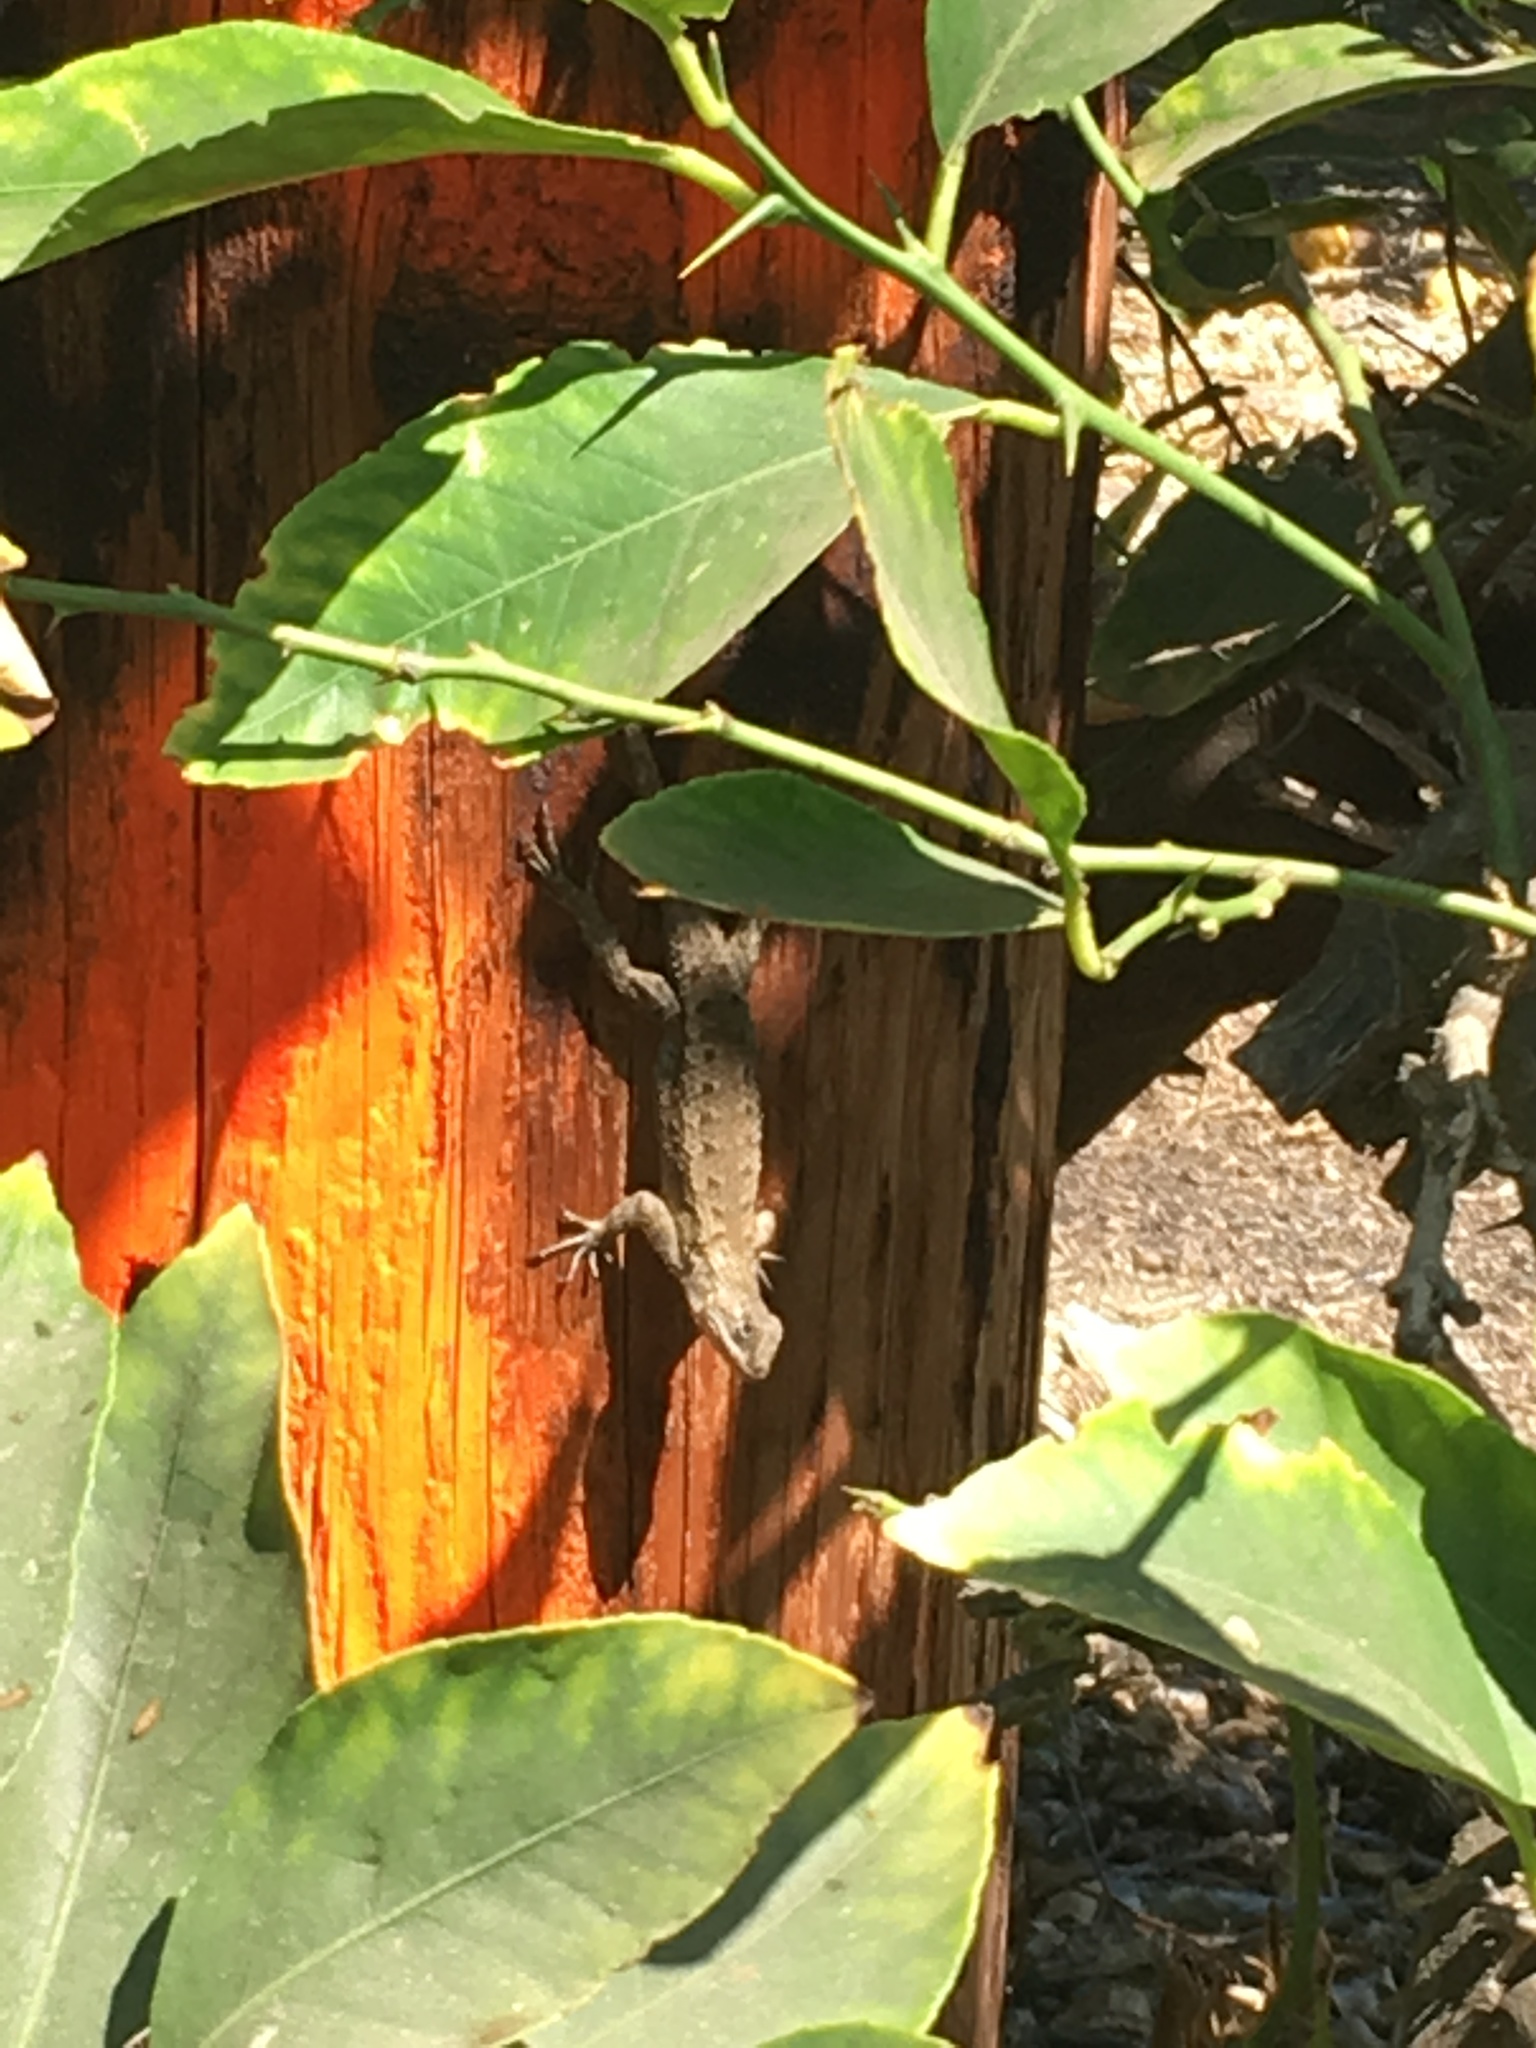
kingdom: Animalia
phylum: Chordata
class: Squamata
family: Phrynosomatidae
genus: Sceloporus
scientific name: Sceloporus occidentalis
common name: Western fence lizard
